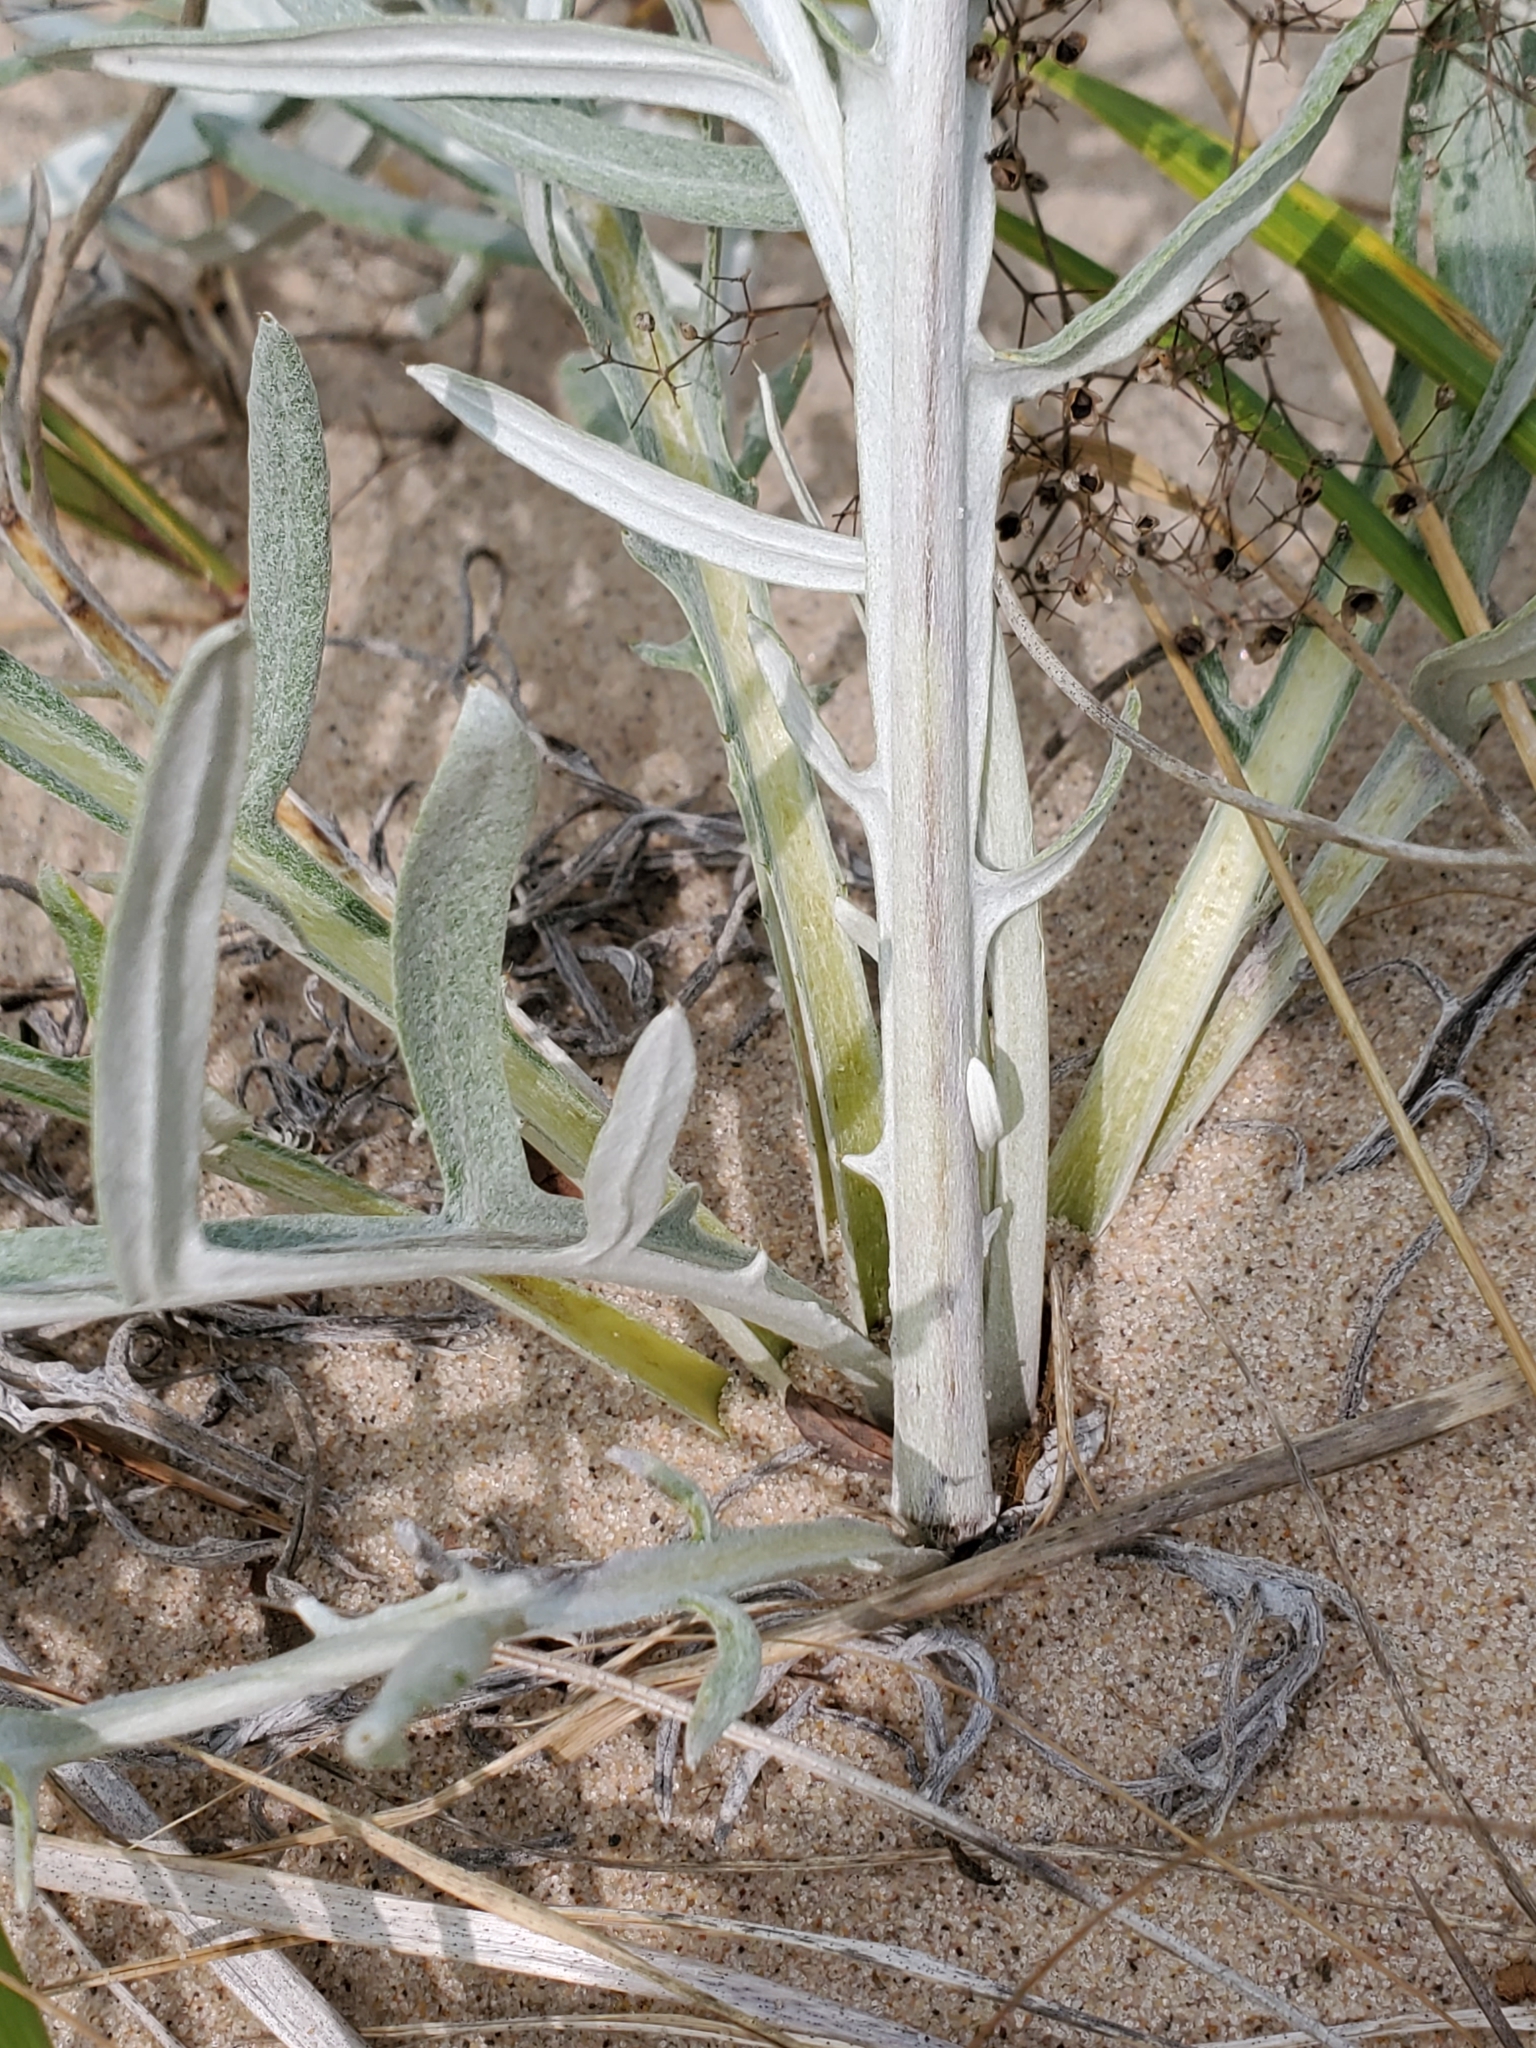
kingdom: Plantae
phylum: Tracheophyta
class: Magnoliopsida
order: Asterales
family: Asteraceae
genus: Cirsium
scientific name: Cirsium pitcheri
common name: Dune thistle
